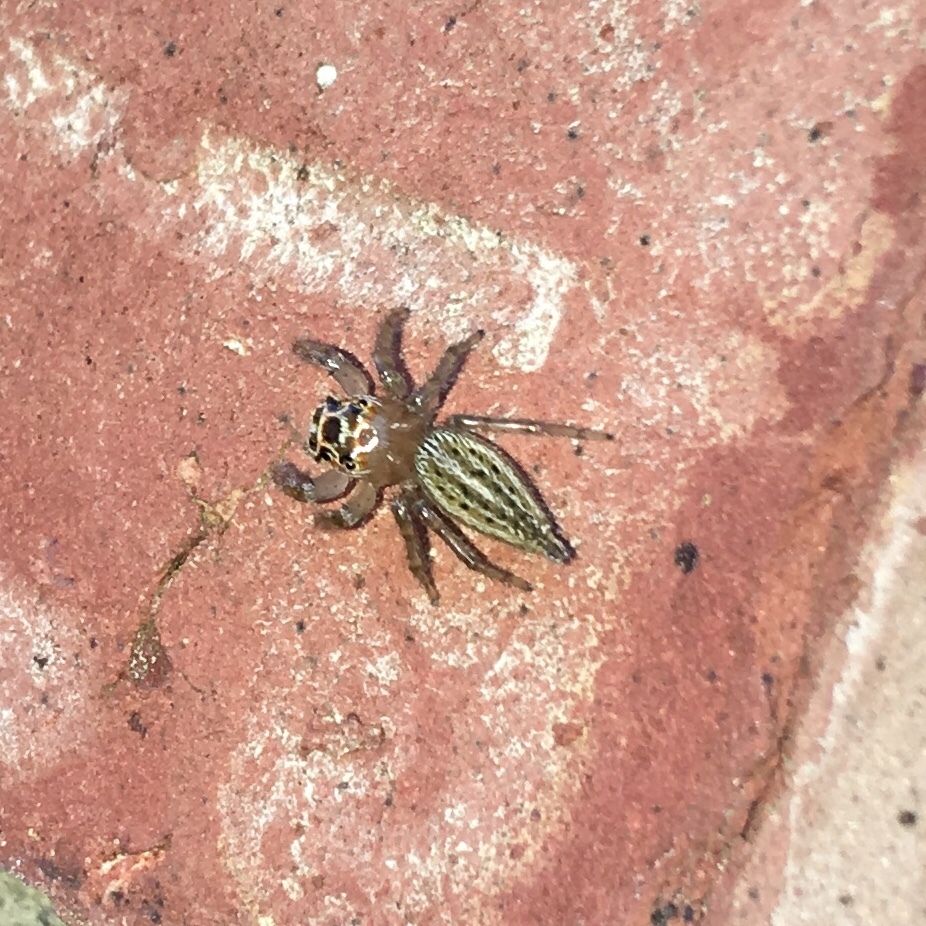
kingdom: Animalia
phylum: Arthropoda
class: Arachnida
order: Araneae
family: Salticidae
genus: Colonus
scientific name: Colonus sylvanus
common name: Jumping spiders
